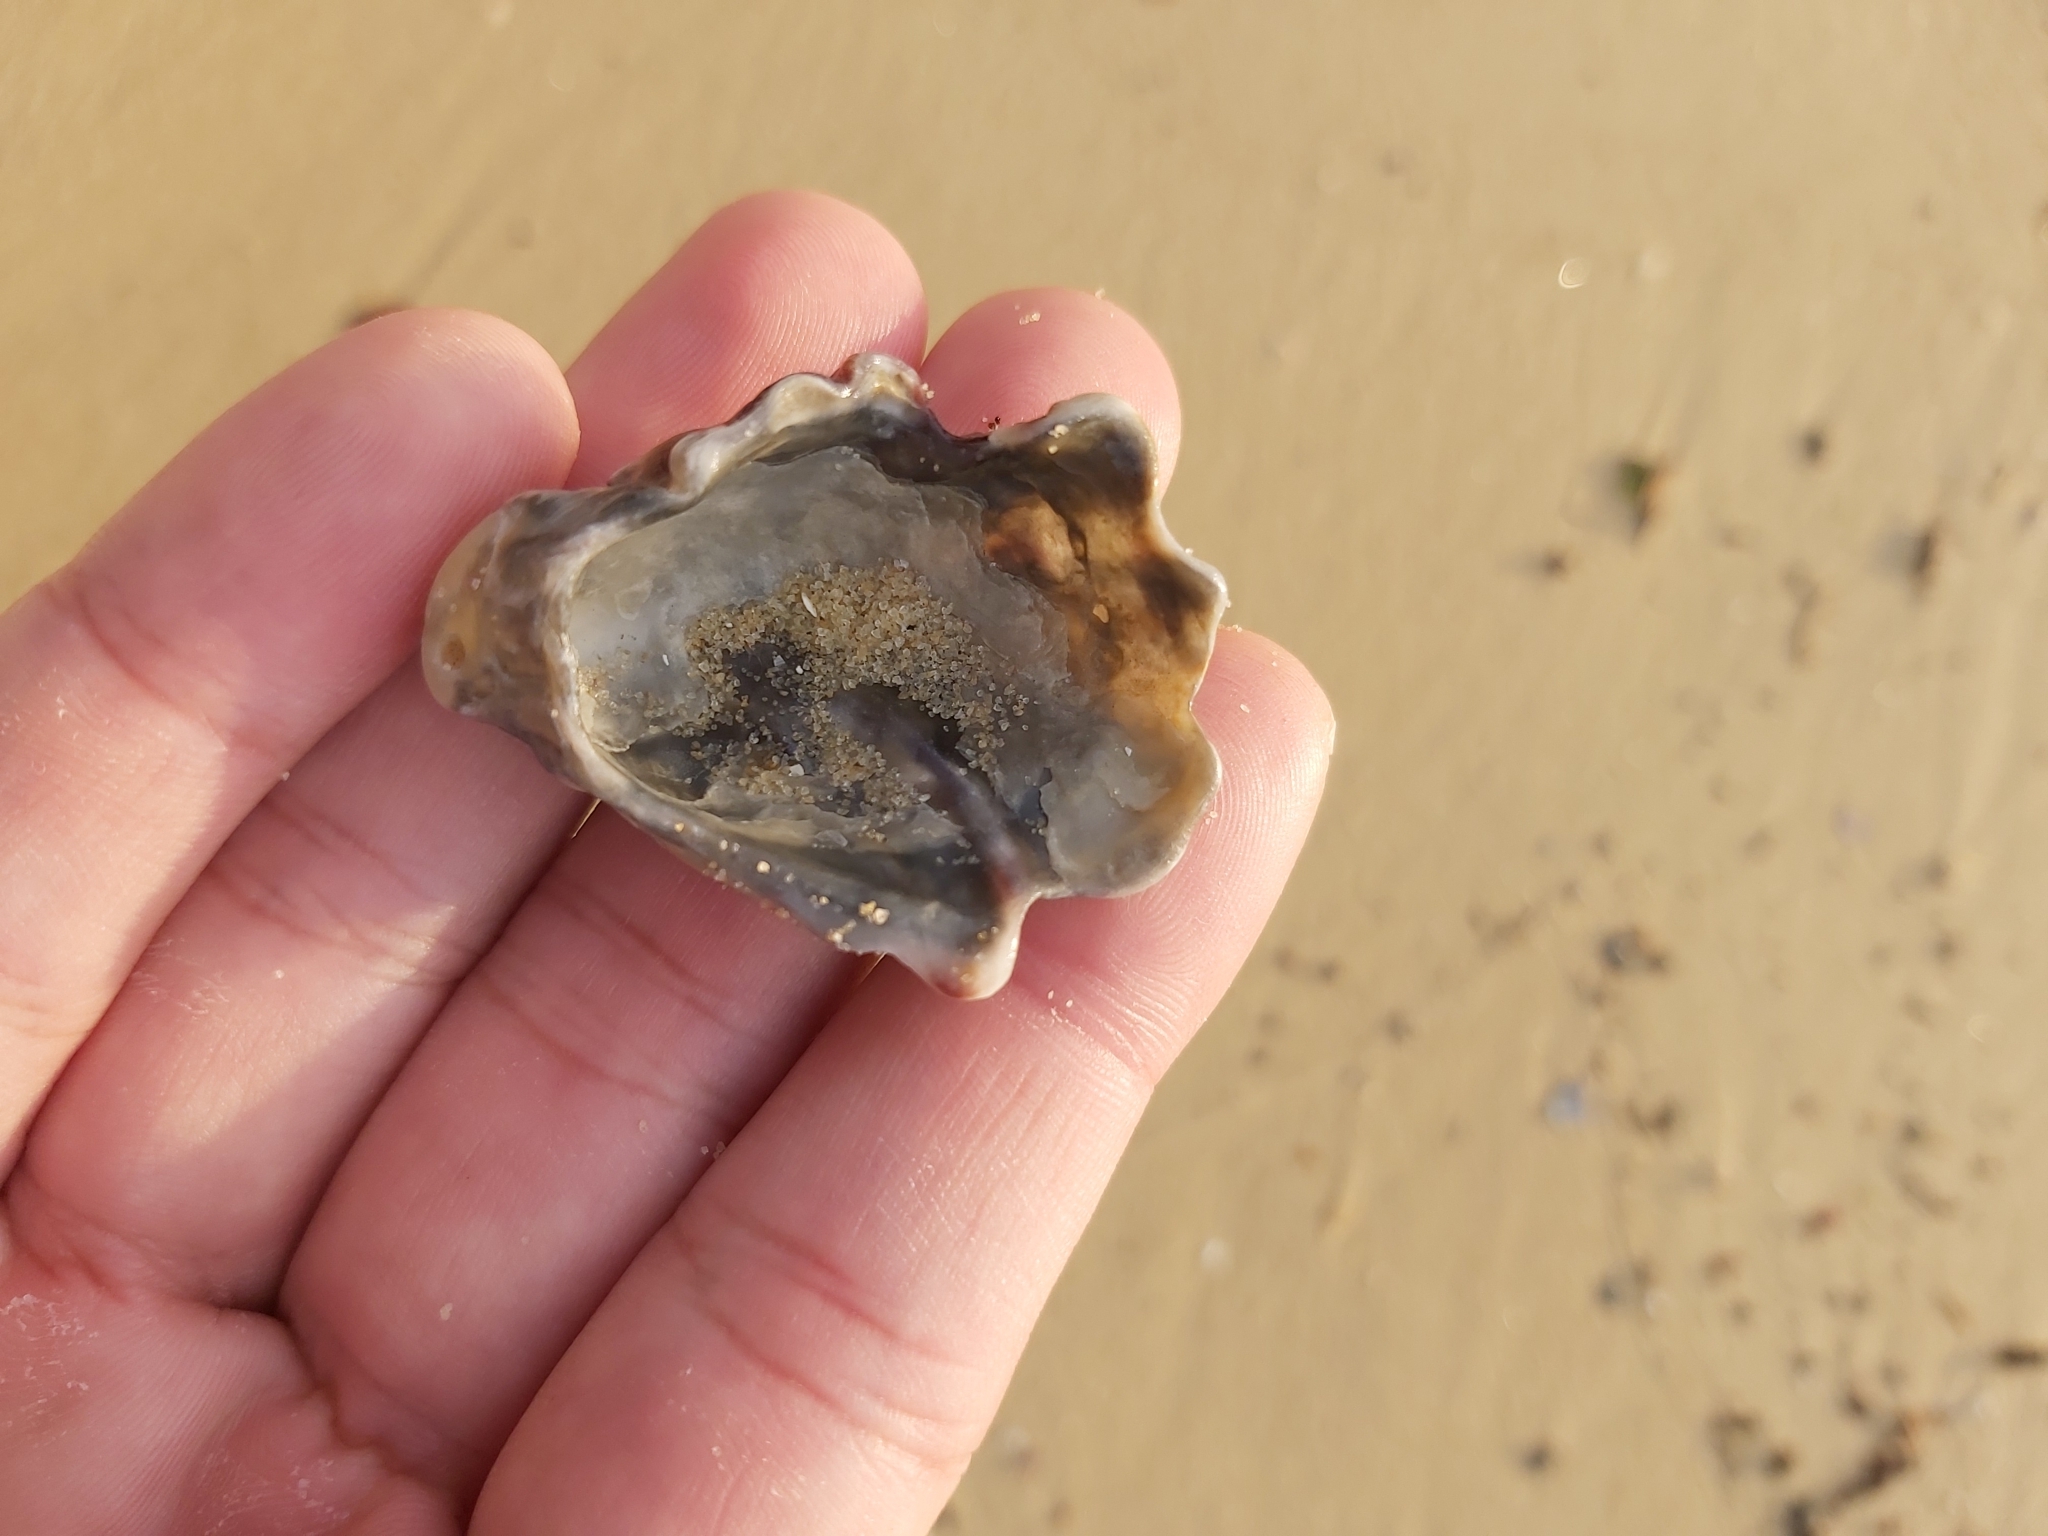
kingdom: Animalia
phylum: Mollusca
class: Bivalvia
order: Ostreida
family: Ostreidae
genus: Saccostrea
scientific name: Saccostrea glomerata
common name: Sydney cupped oyster
